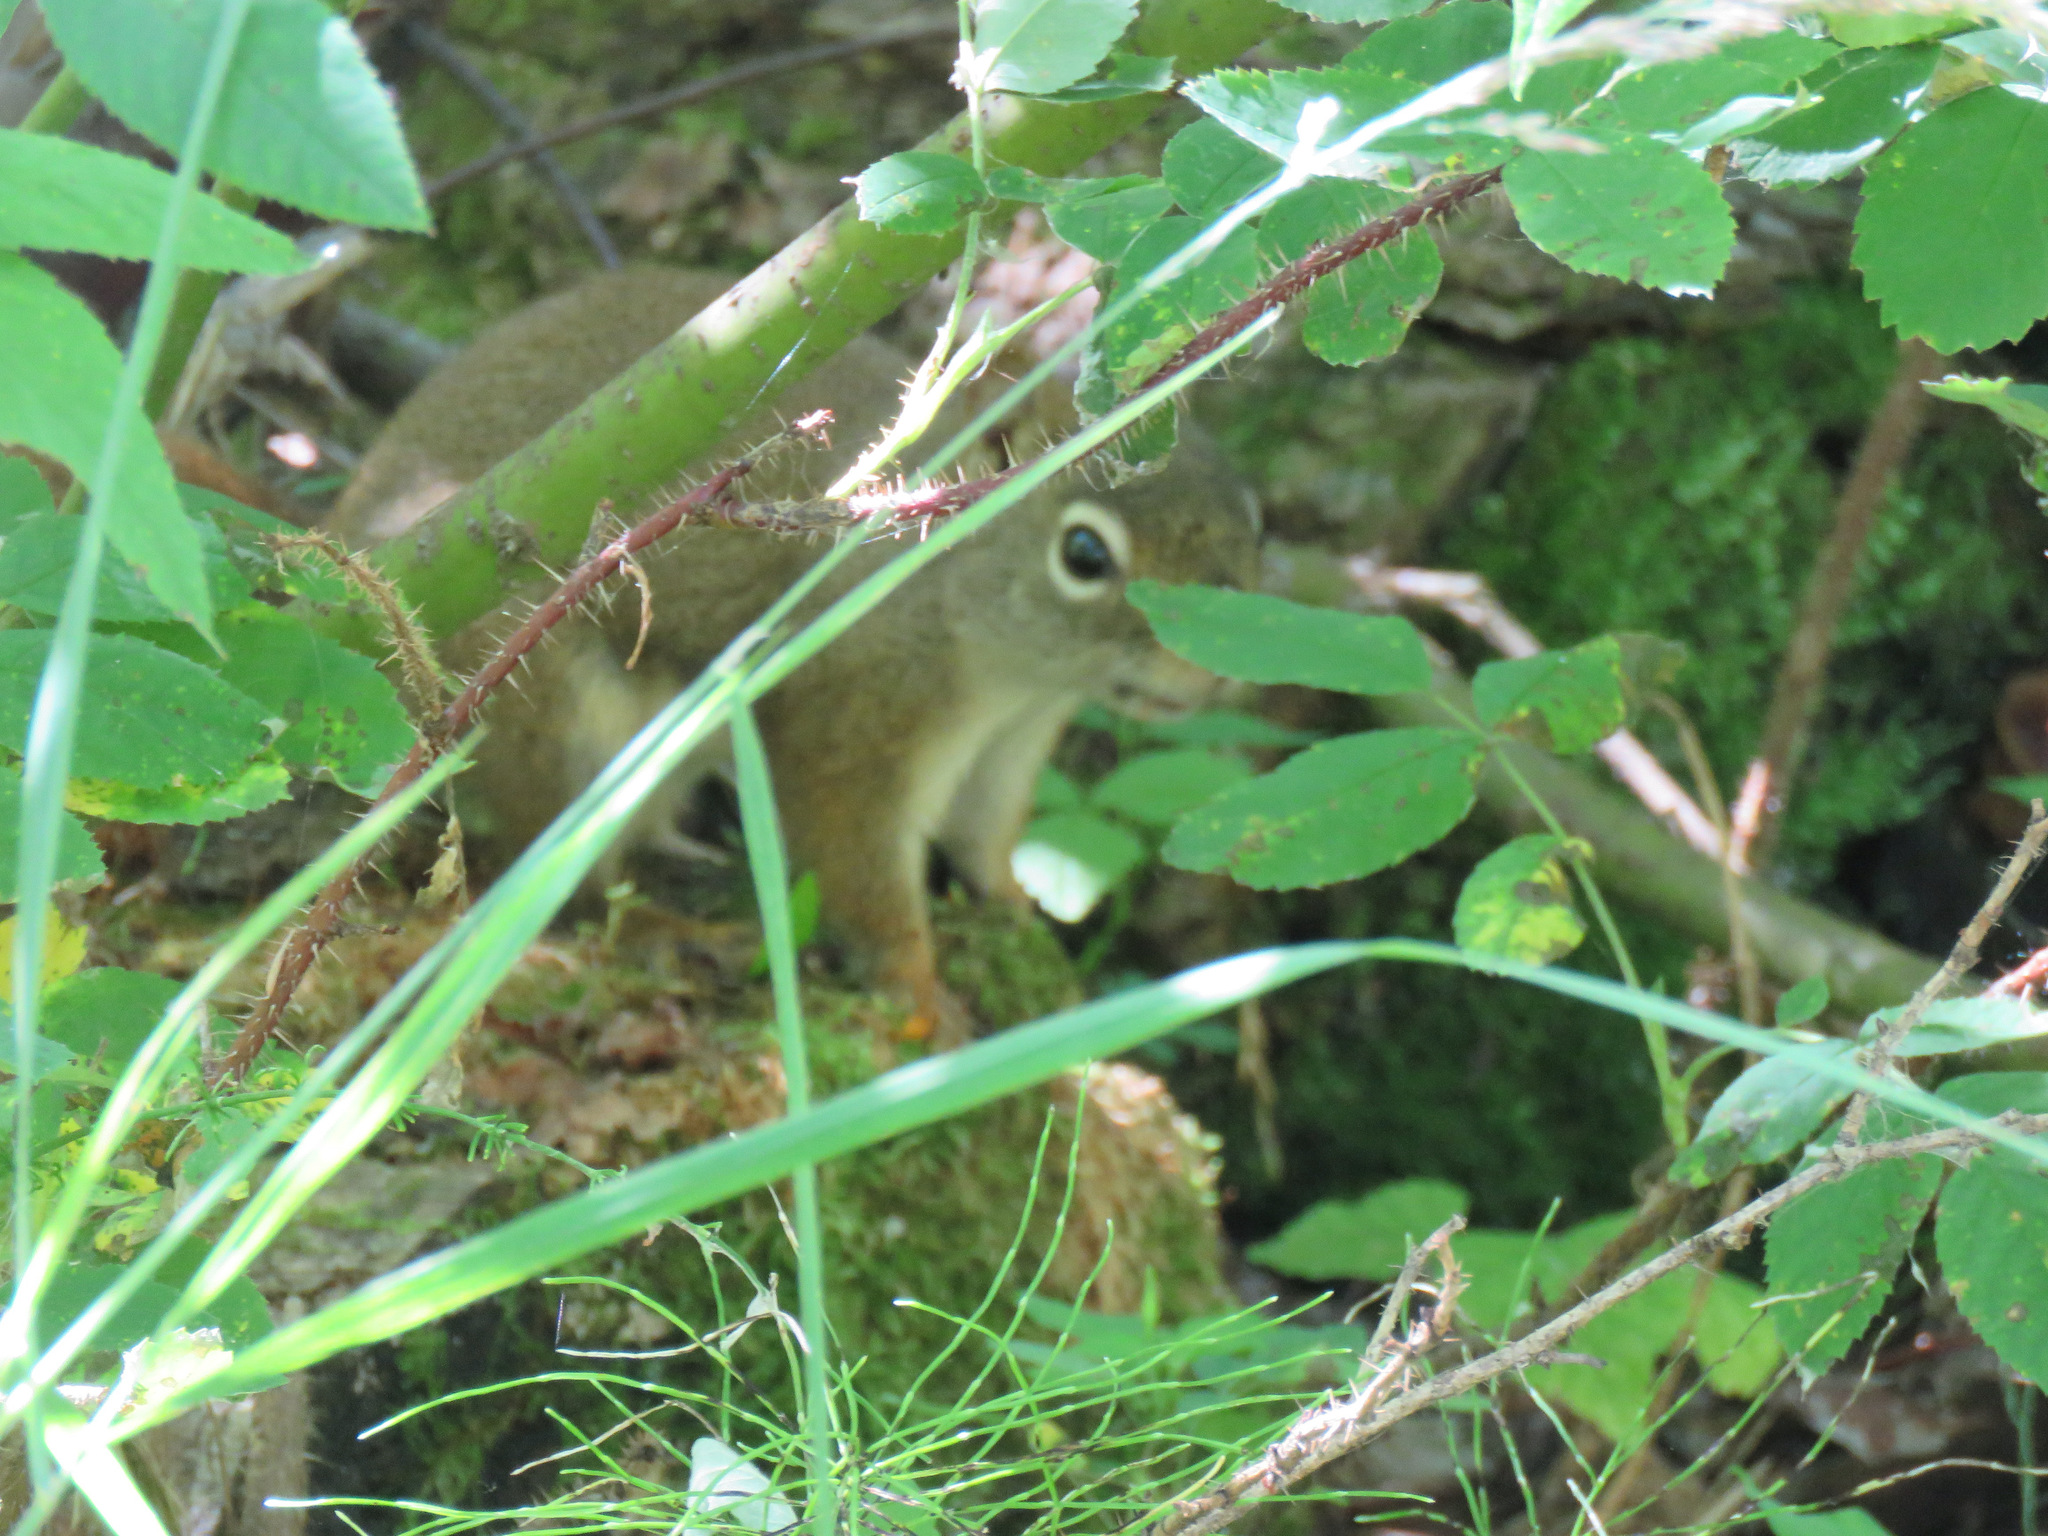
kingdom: Animalia
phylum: Chordata
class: Mammalia
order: Rodentia
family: Sciuridae
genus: Tamiasciurus
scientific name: Tamiasciurus hudsonicus
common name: Red squirrel
